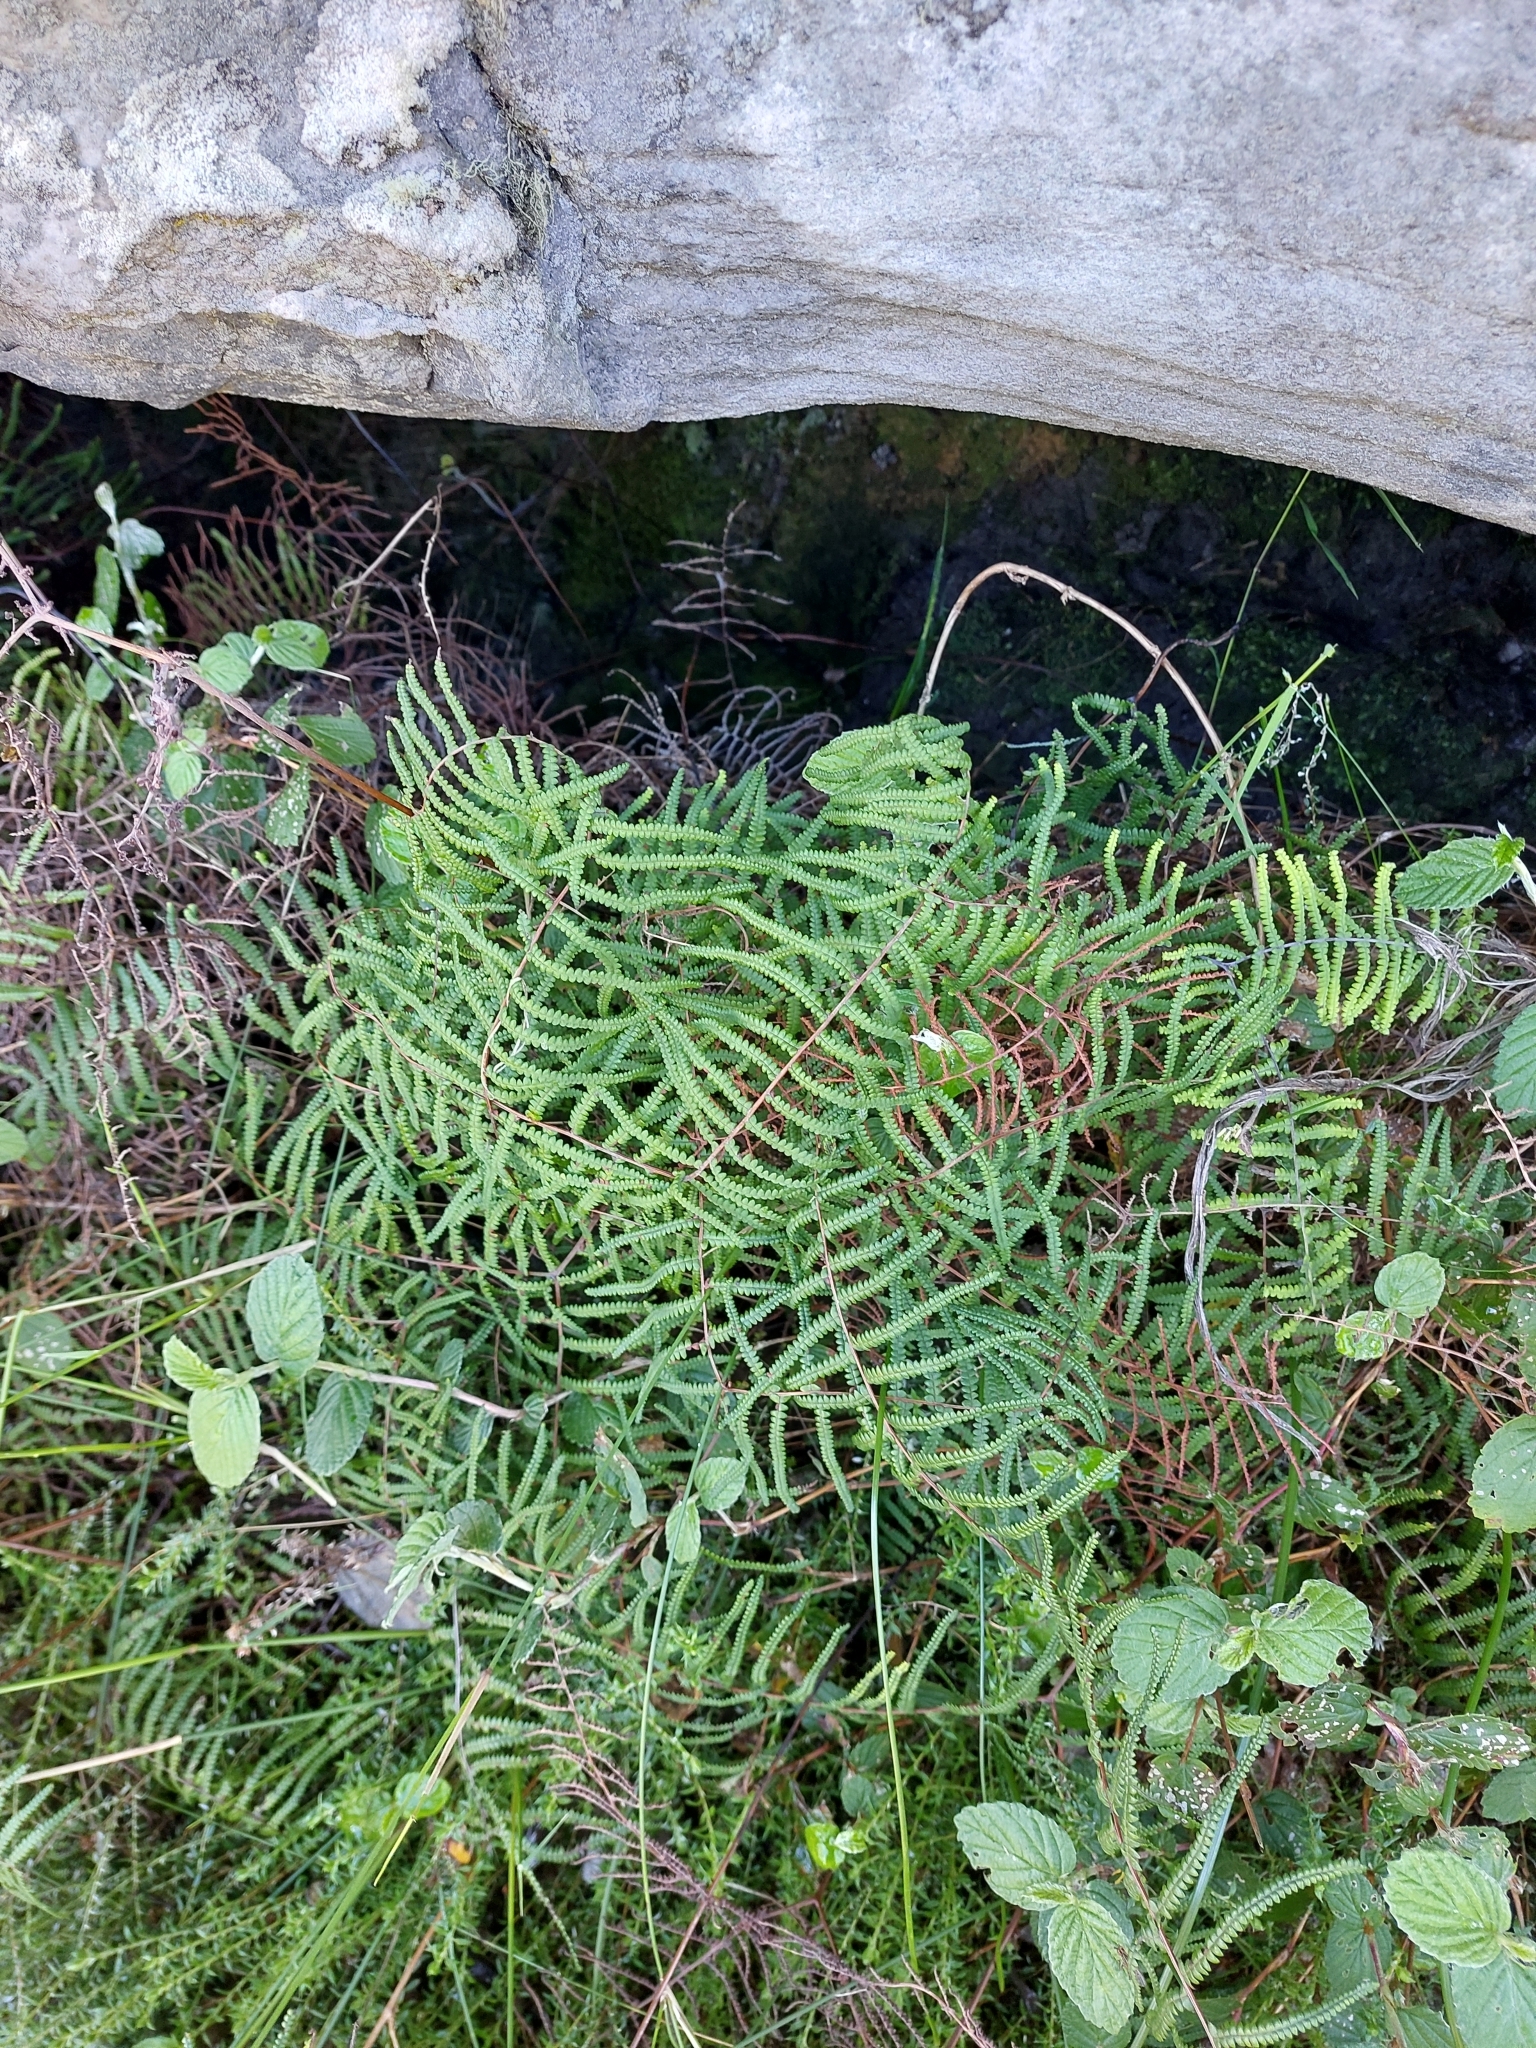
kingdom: Plantae
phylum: Tracheophyta
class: Polypodiopsida
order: Gleicheniales
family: Gleicheniaceae
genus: Gleichenia
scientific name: Gleichenia polypodioides
